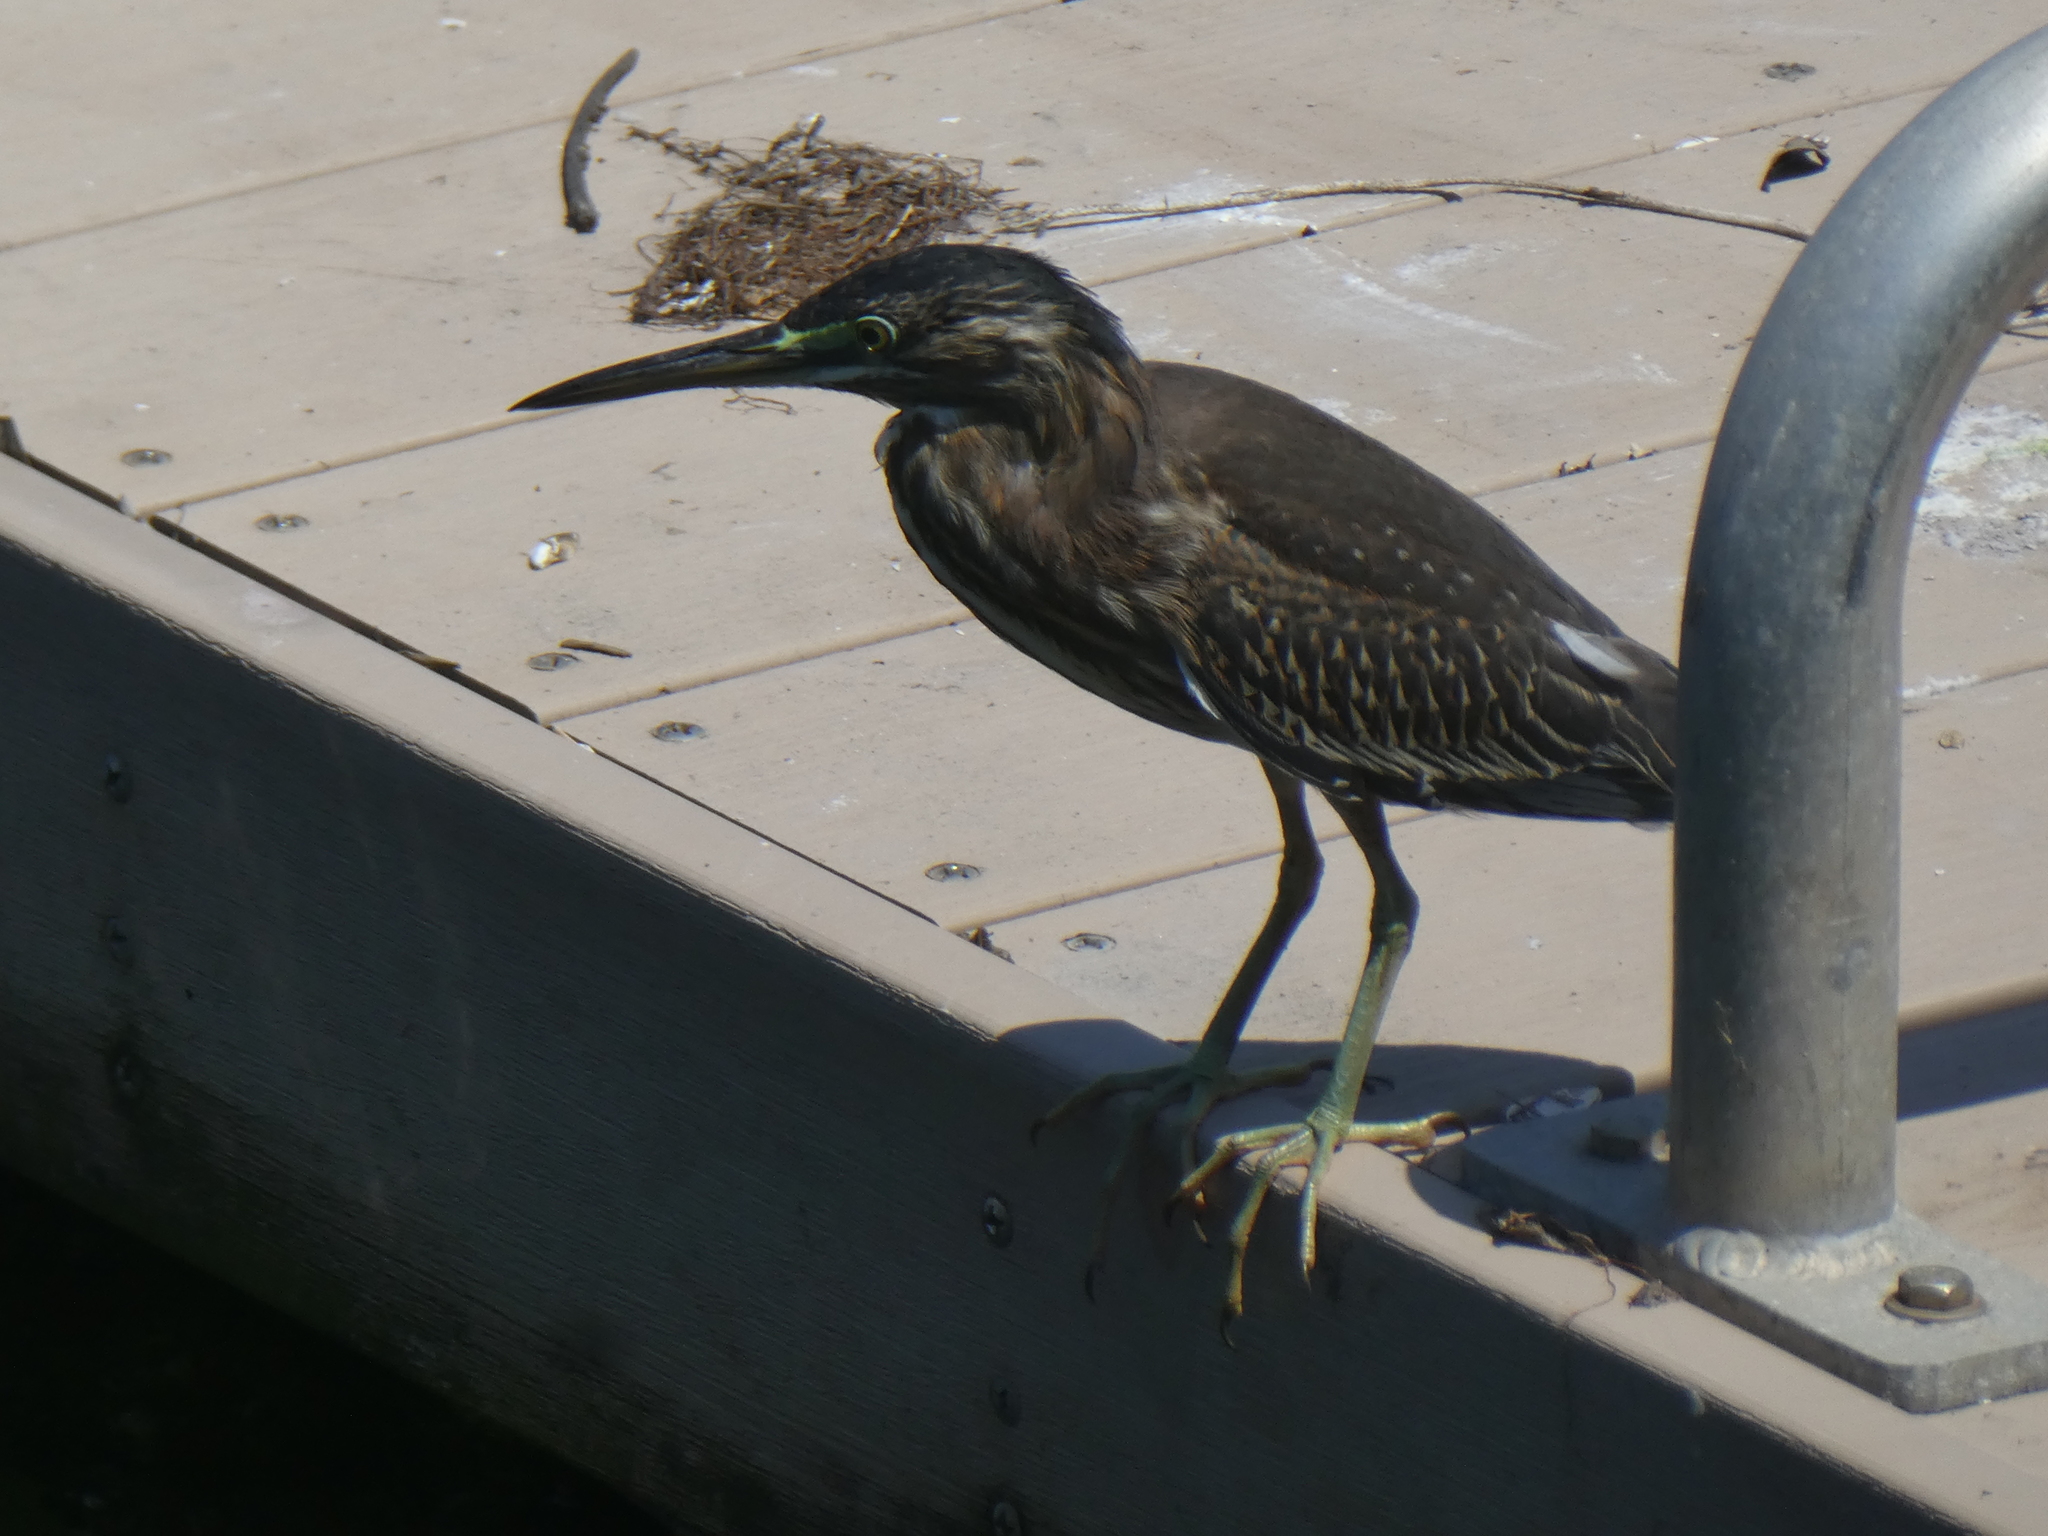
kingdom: Animalia
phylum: Chordata
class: Aves
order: Pelecaniformes
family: Ardeidae
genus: Butorides
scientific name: Butorides striata
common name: Striated heron
